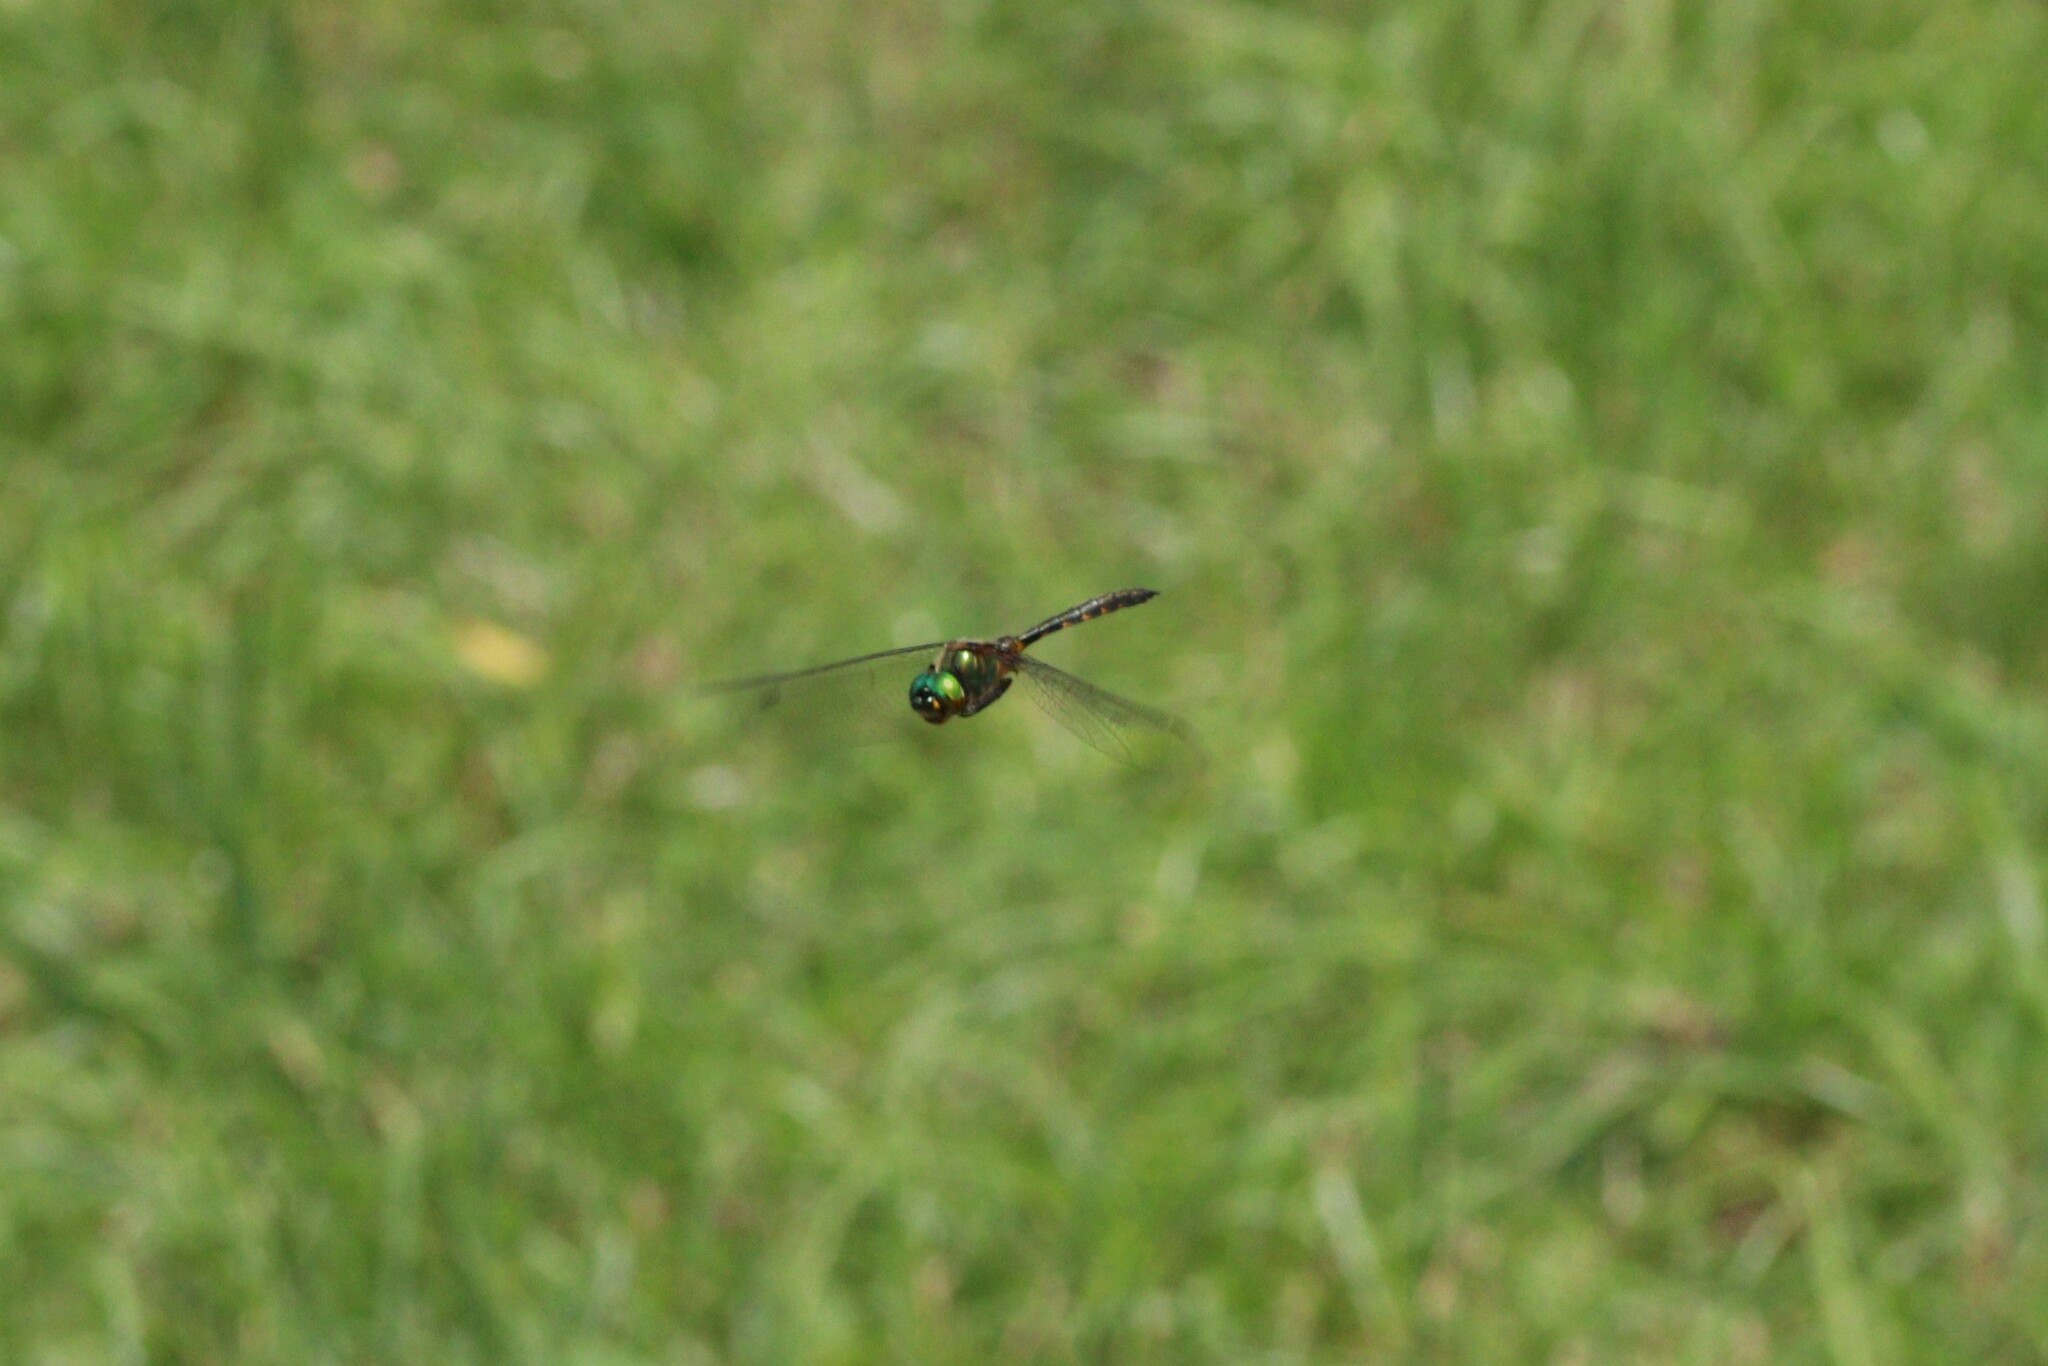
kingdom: Animalia
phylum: Arthropoda
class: Insecta
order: Odonata
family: Corduliidae
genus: Somatochlora
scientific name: Somatochlora flavomaculata
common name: Yellow-spotted emerald
